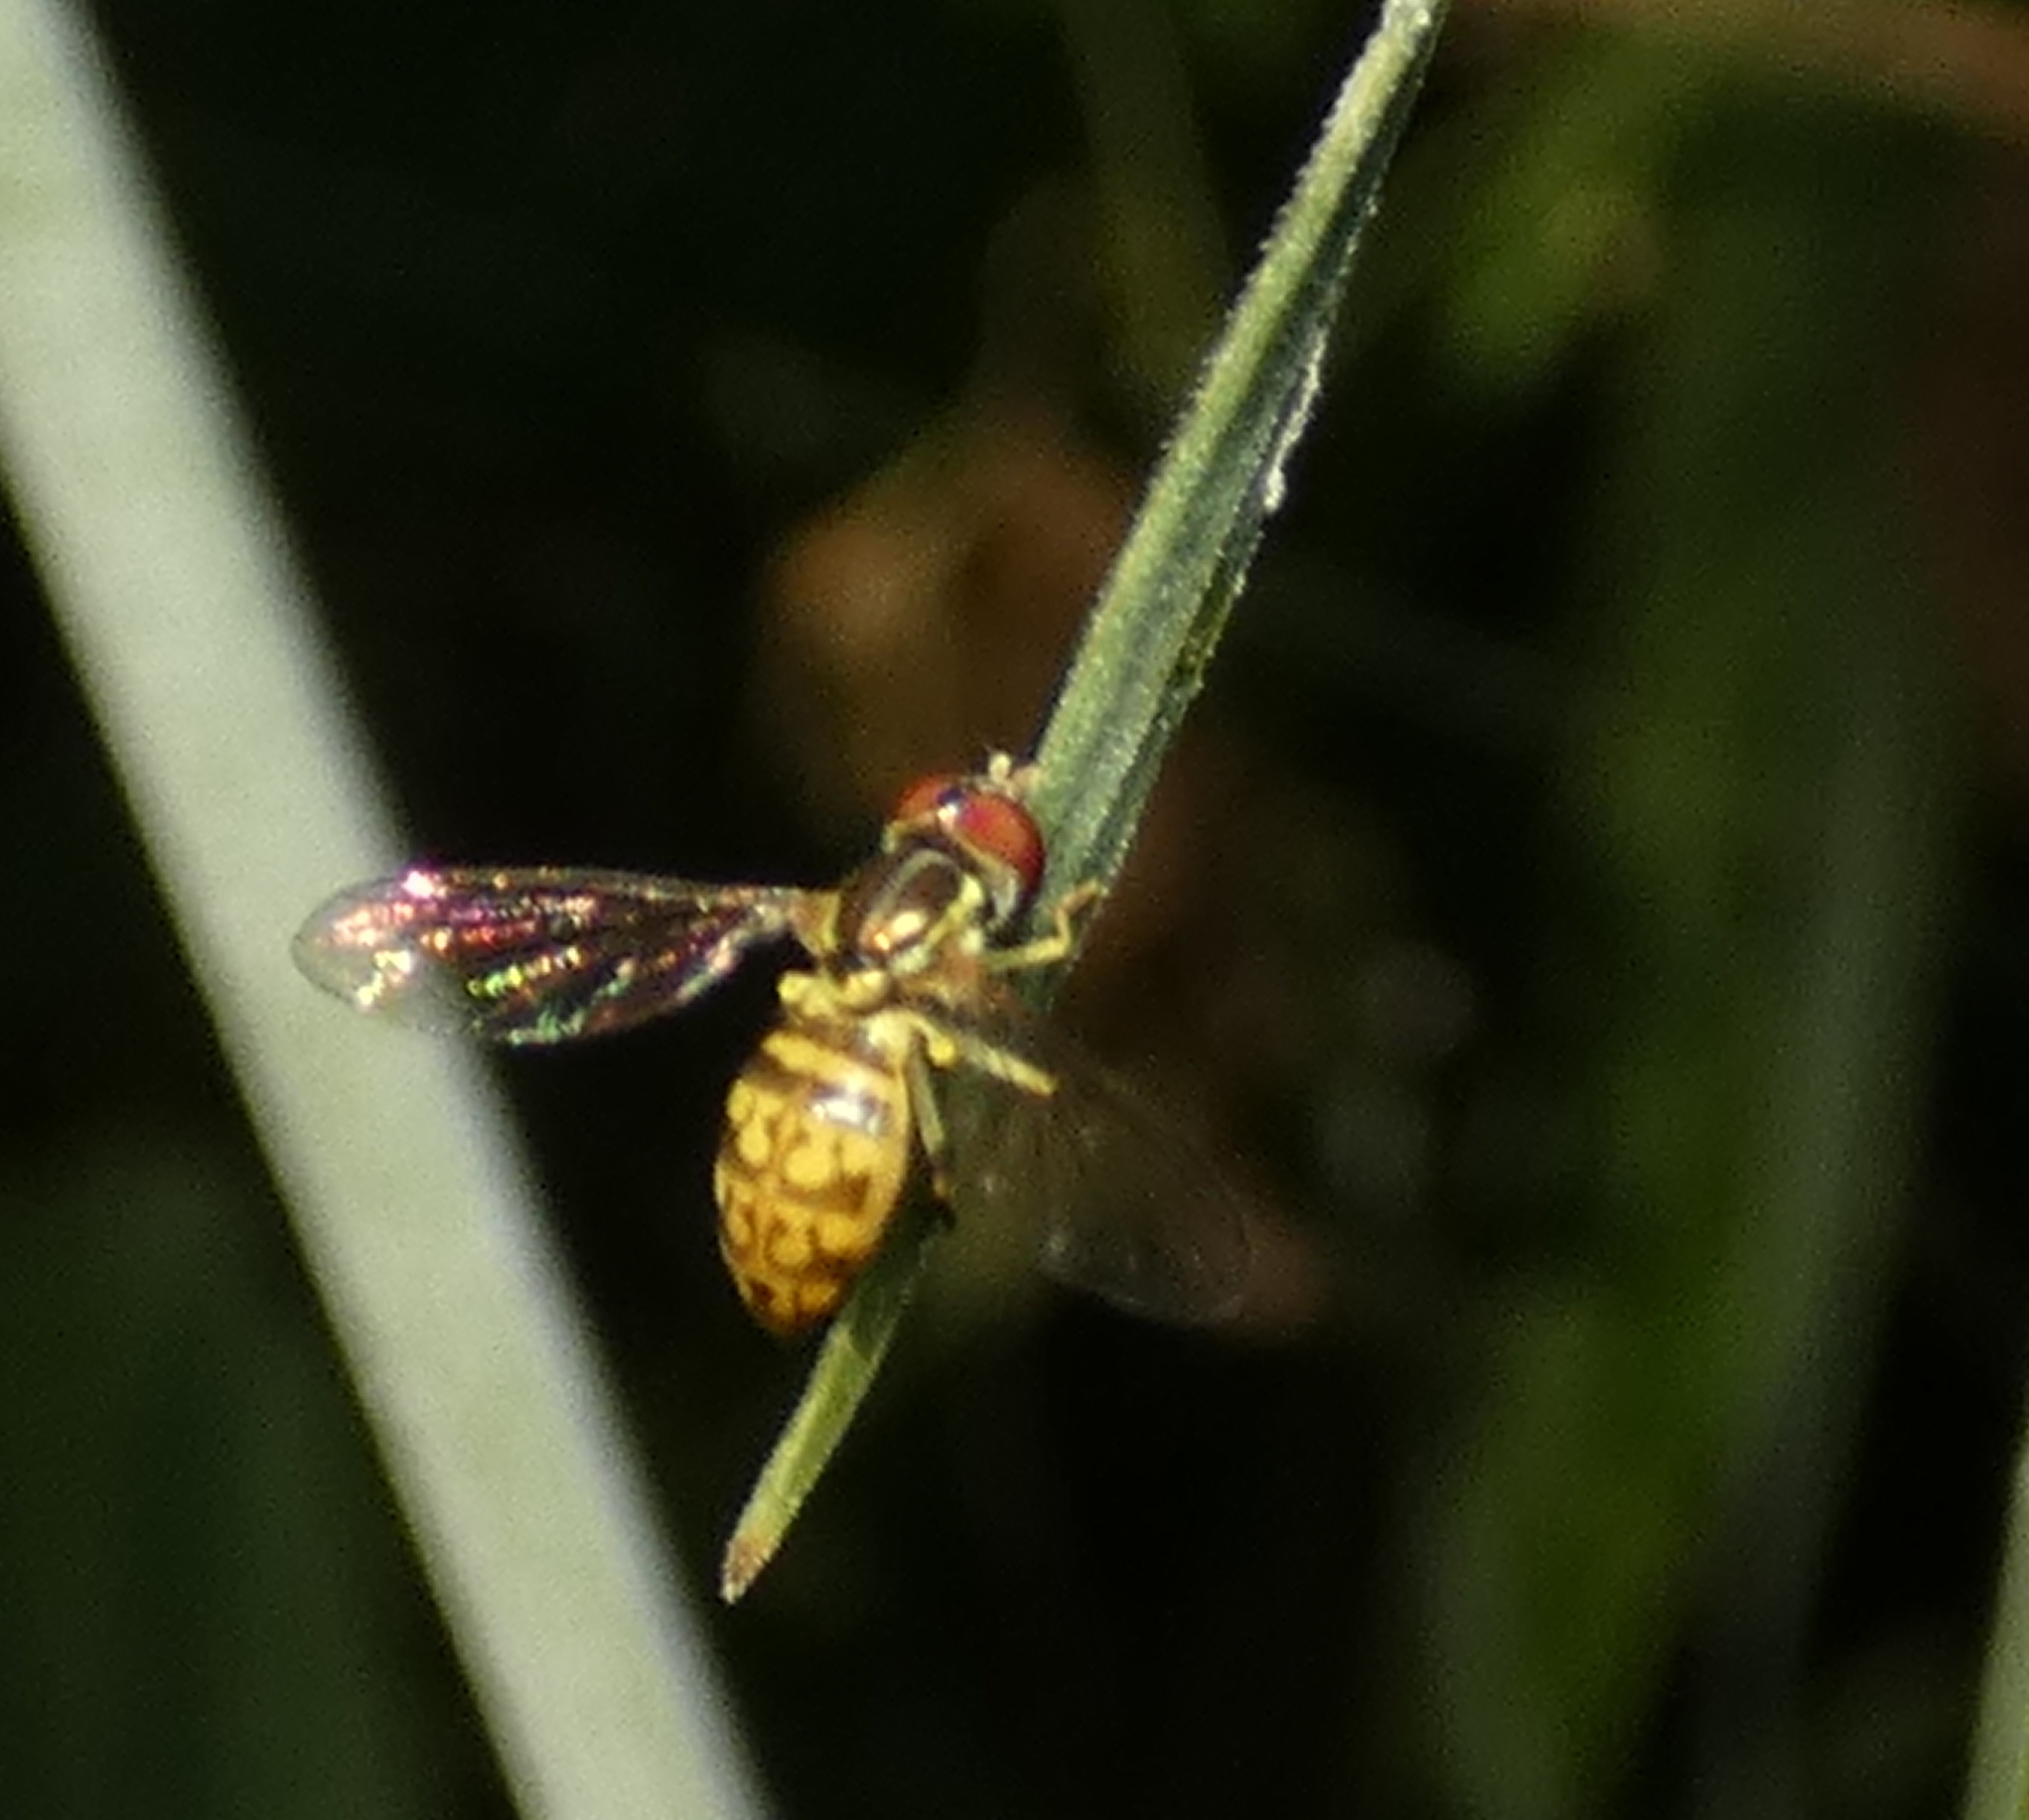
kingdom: Animalia
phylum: Arthropoda
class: Insecta
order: Diptera
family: Syrphidae
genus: Toxomerus
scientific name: Toxomerus pictus
